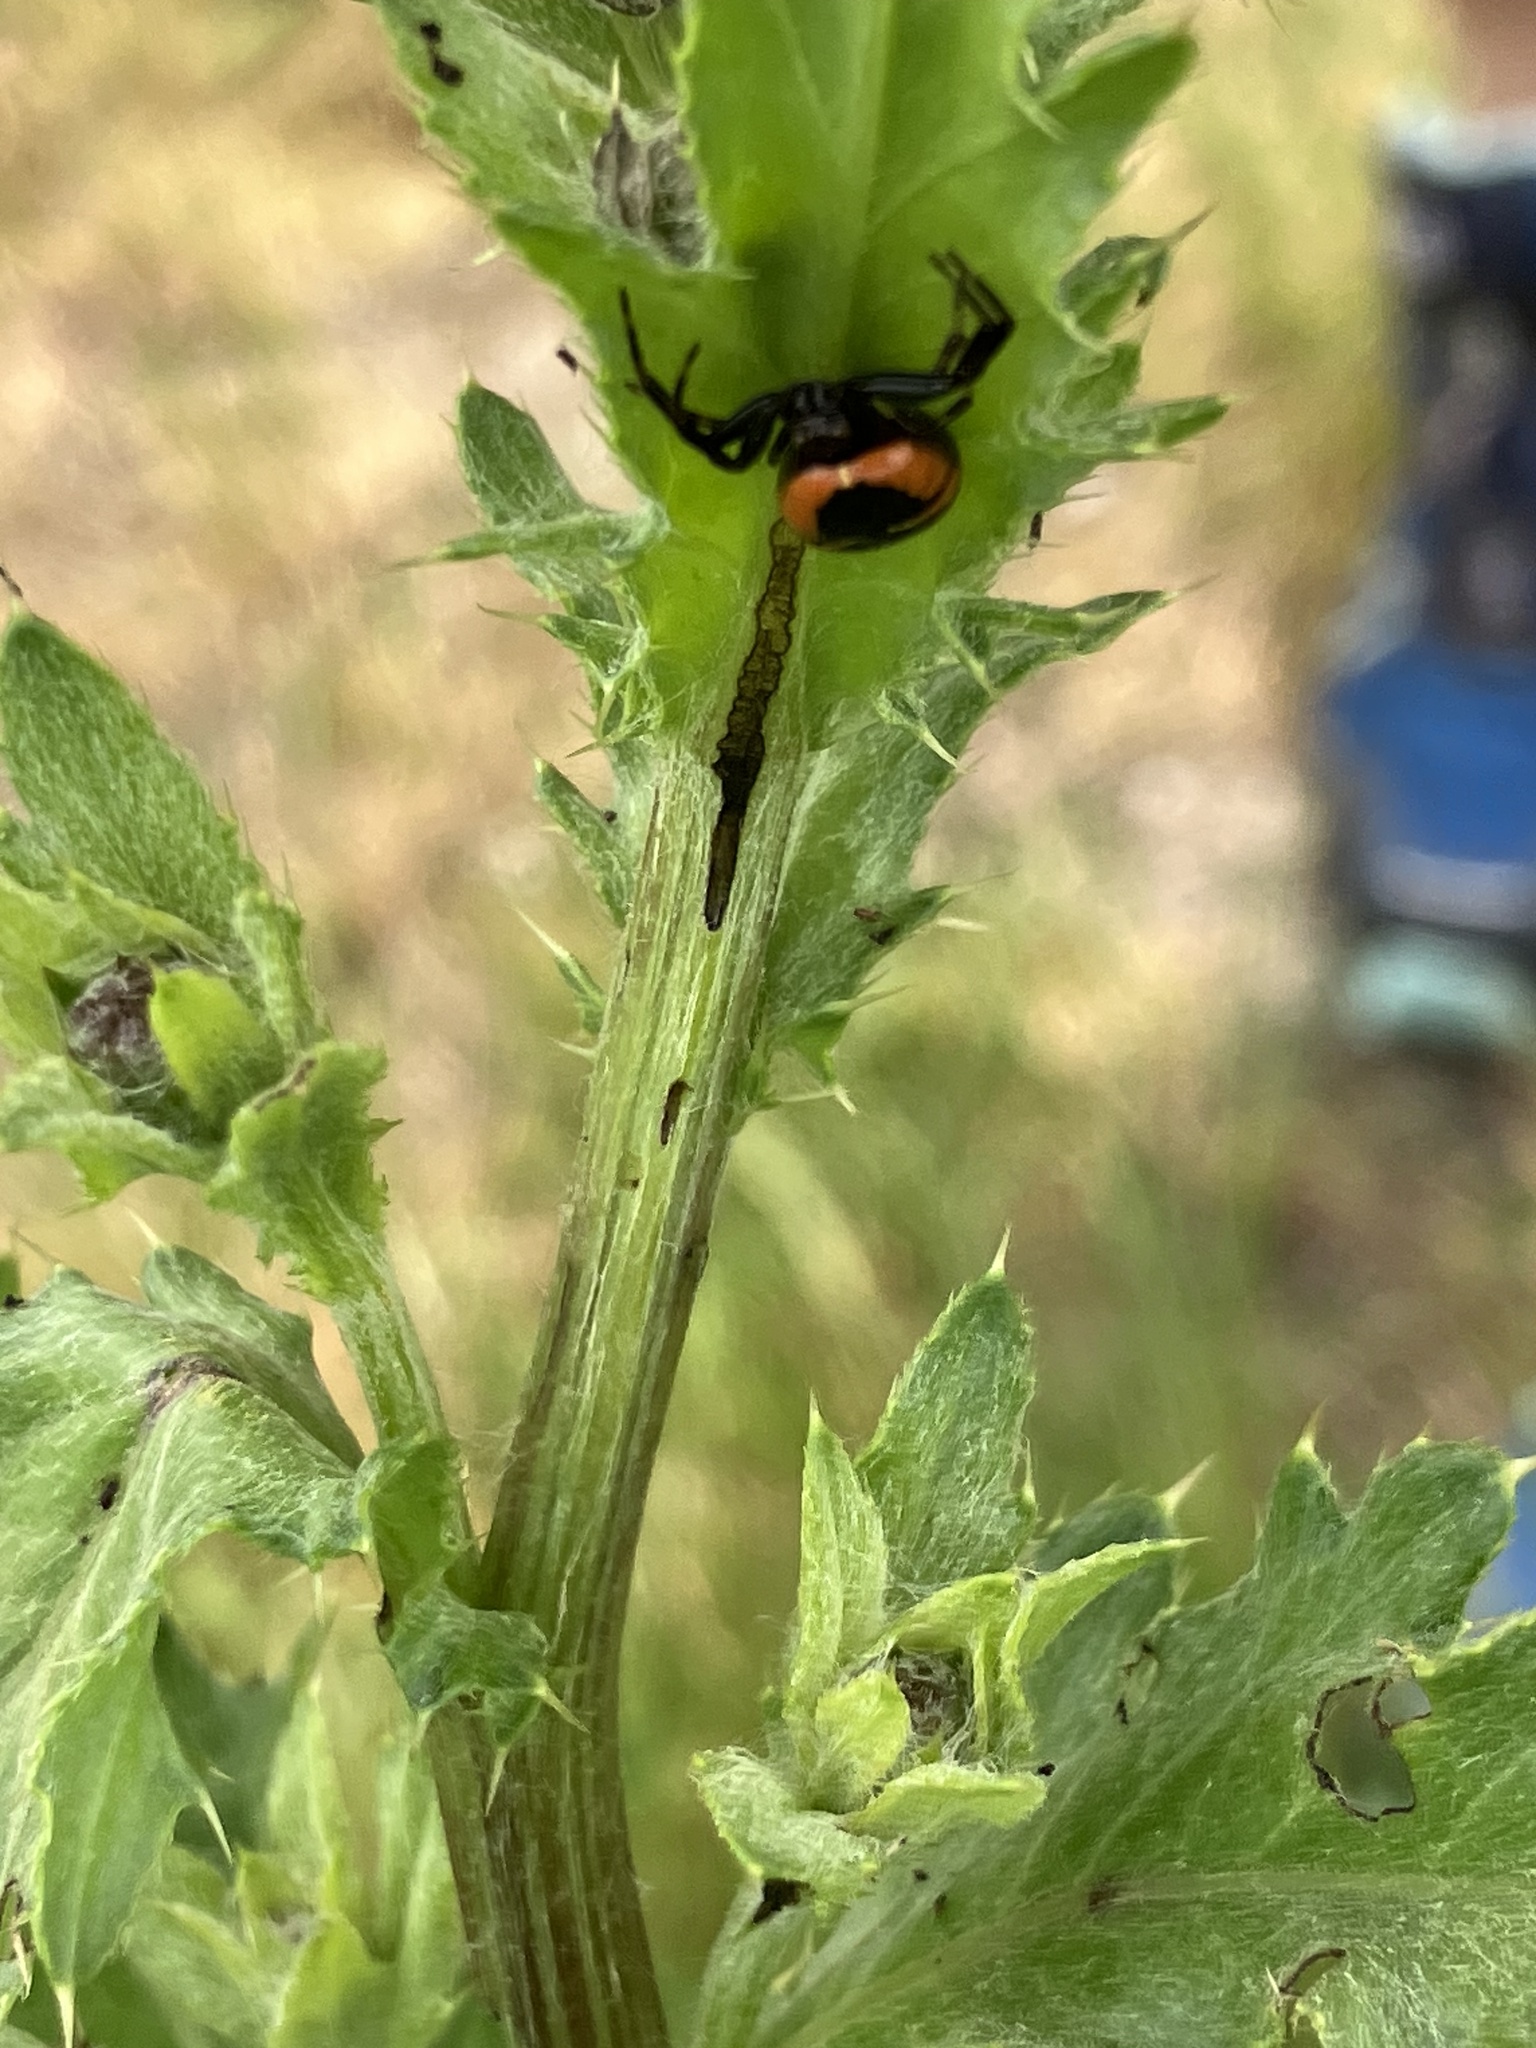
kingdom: Animalia
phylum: Arthropoda
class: Arachnida
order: Araneae
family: Thomisidae
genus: Synema
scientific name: Synema globosum
